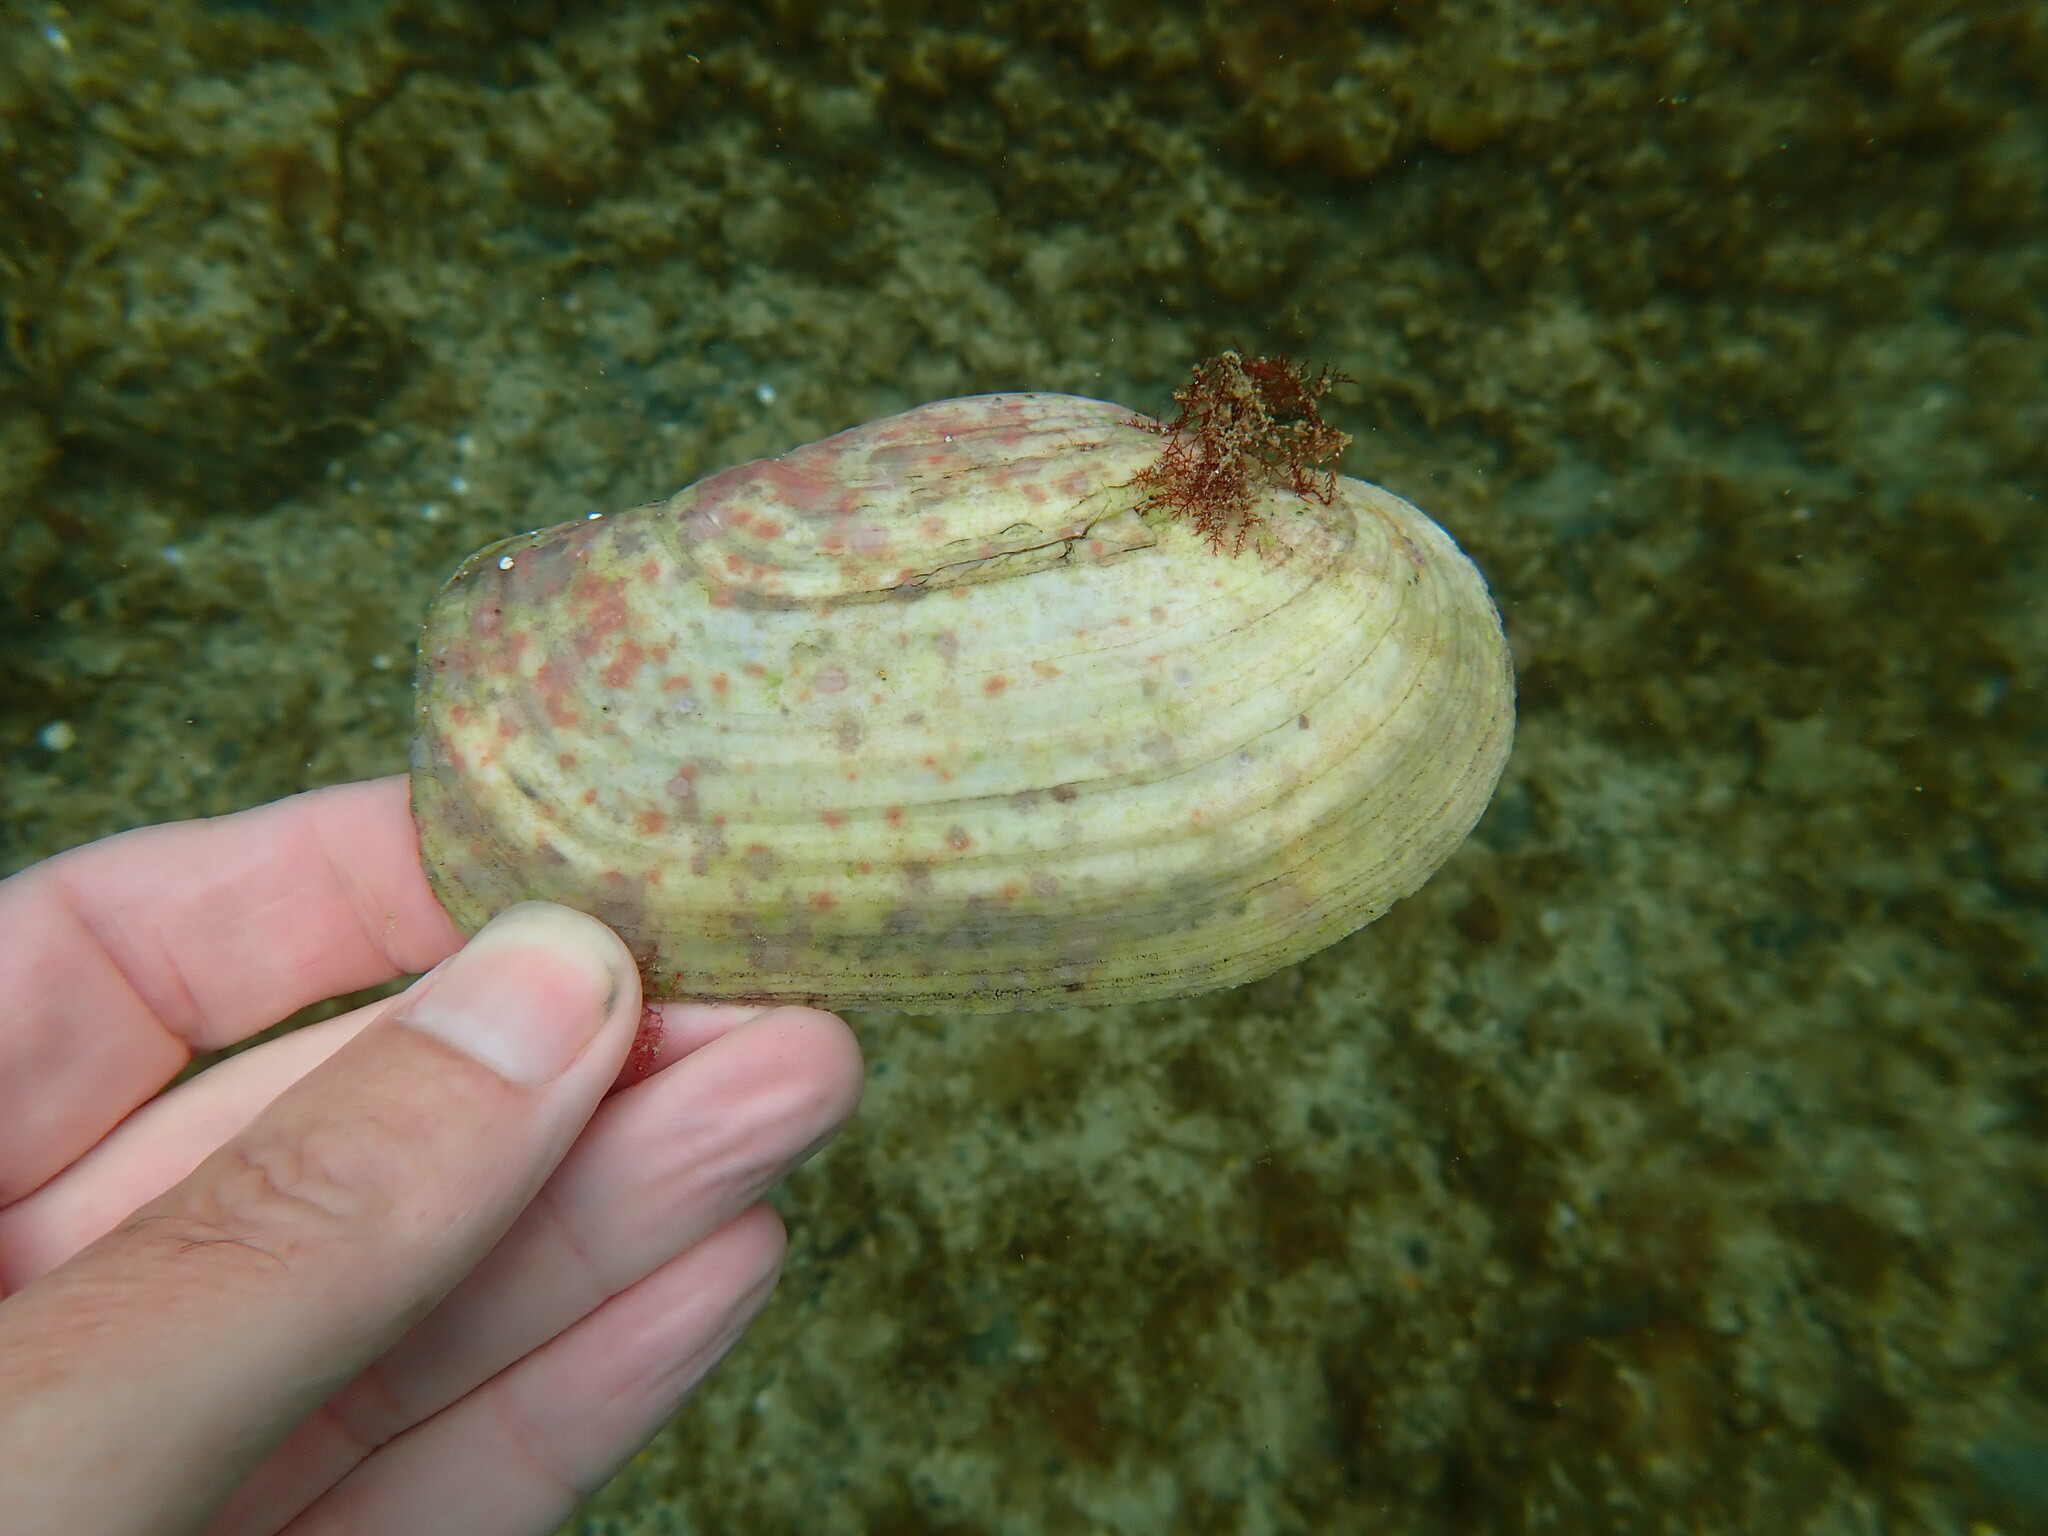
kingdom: Animalia
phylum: Mollusca
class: Bivalvia
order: Adapedonta
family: Hiatellidae
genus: Panopea
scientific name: Panopea zelandica
